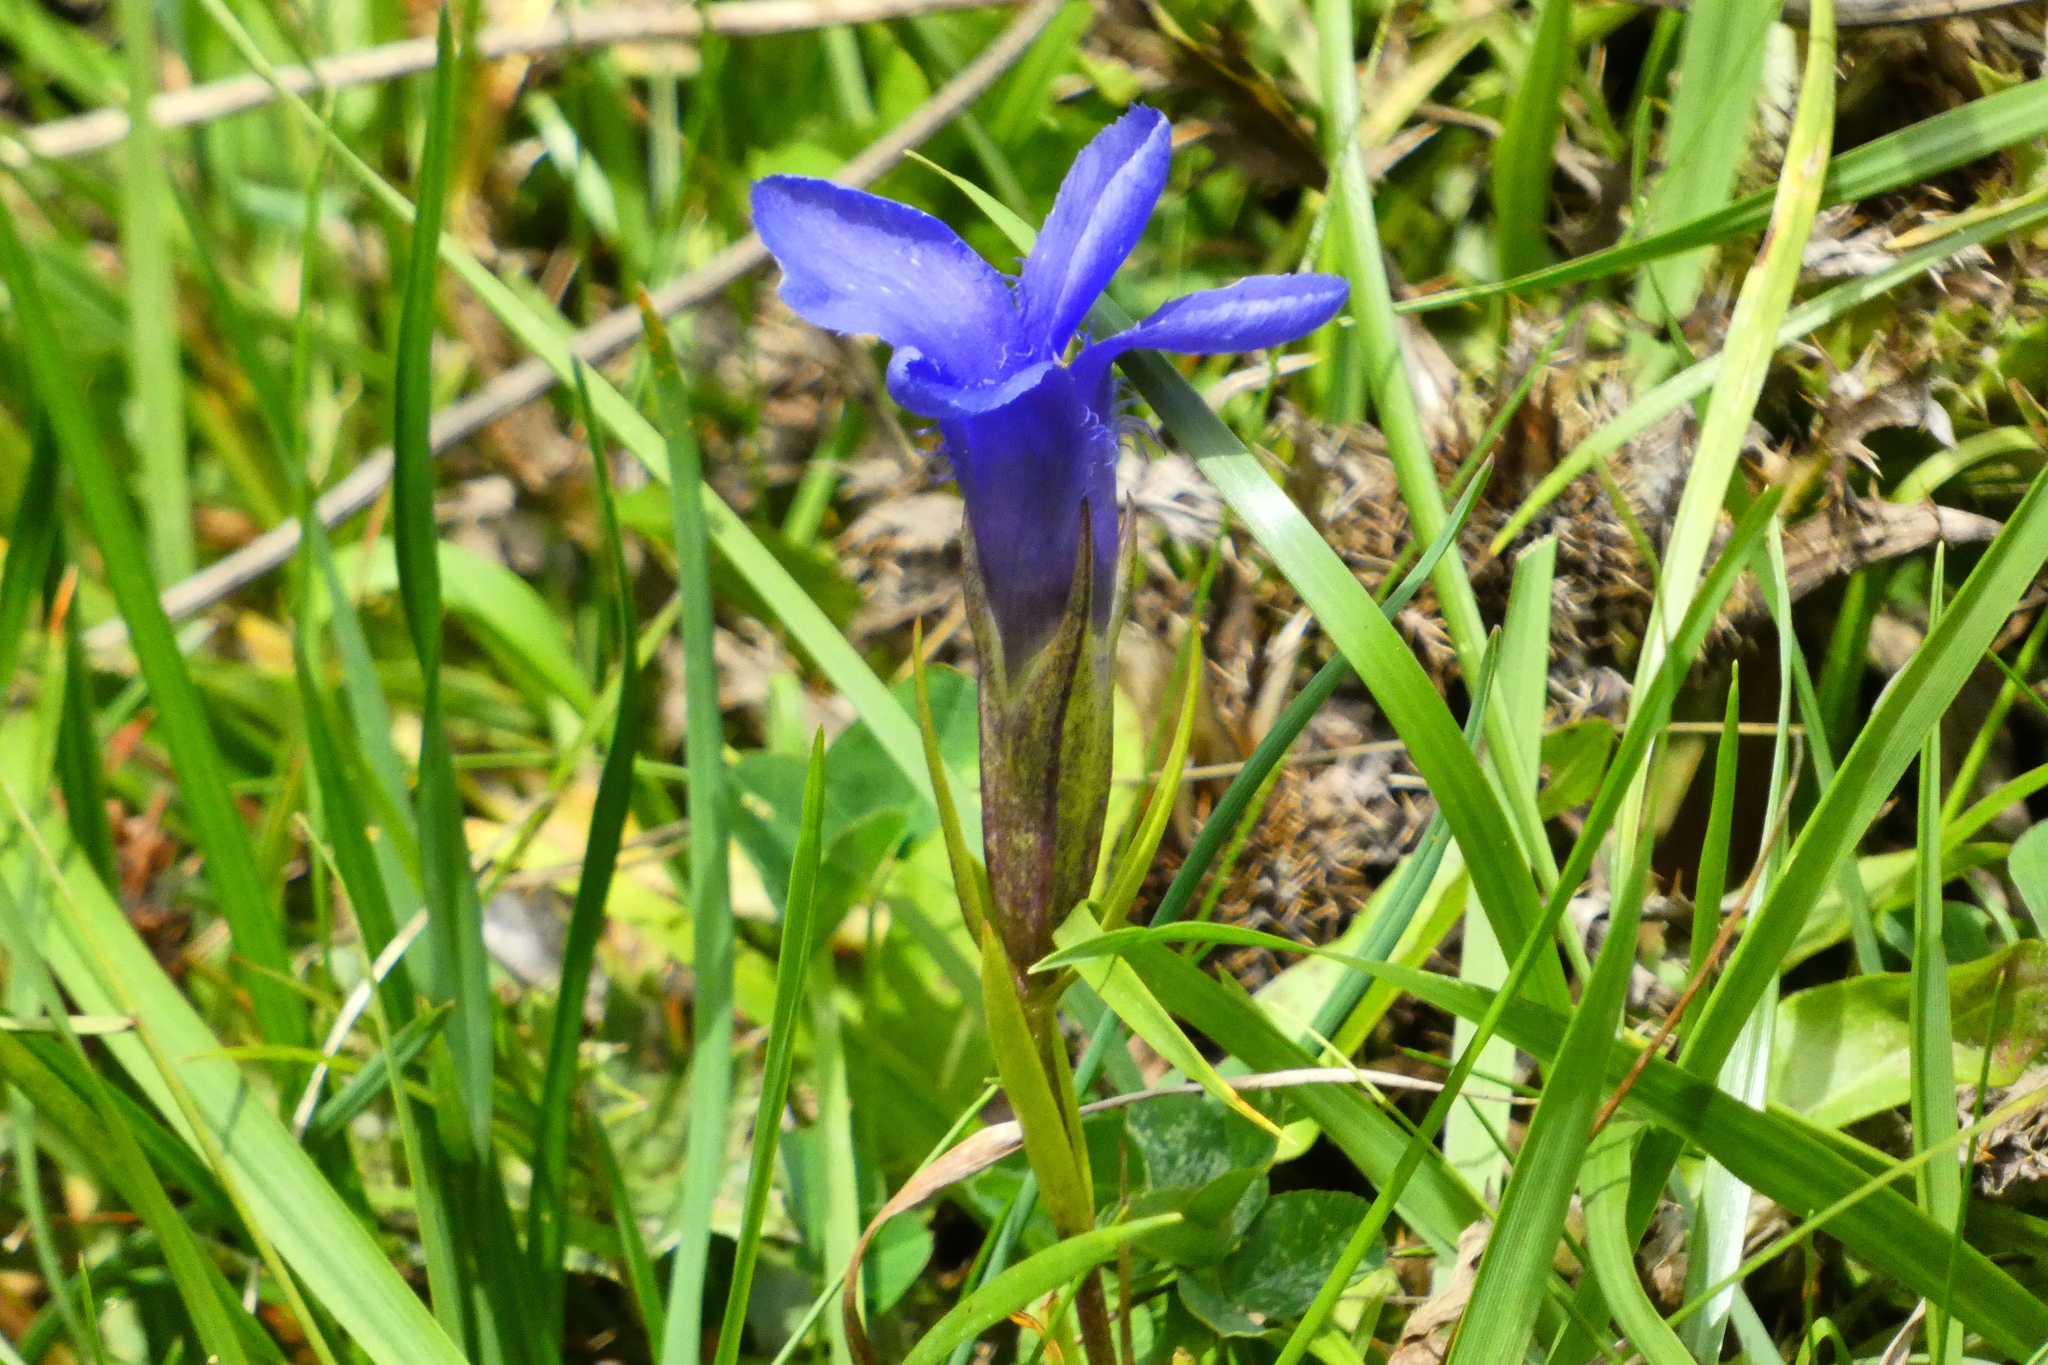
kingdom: Plantae
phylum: Tracheophyta
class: Magnoliopsida
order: Gentianales
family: Gentianaceae
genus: Gentianopsis
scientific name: Gentianopsis ciliata
